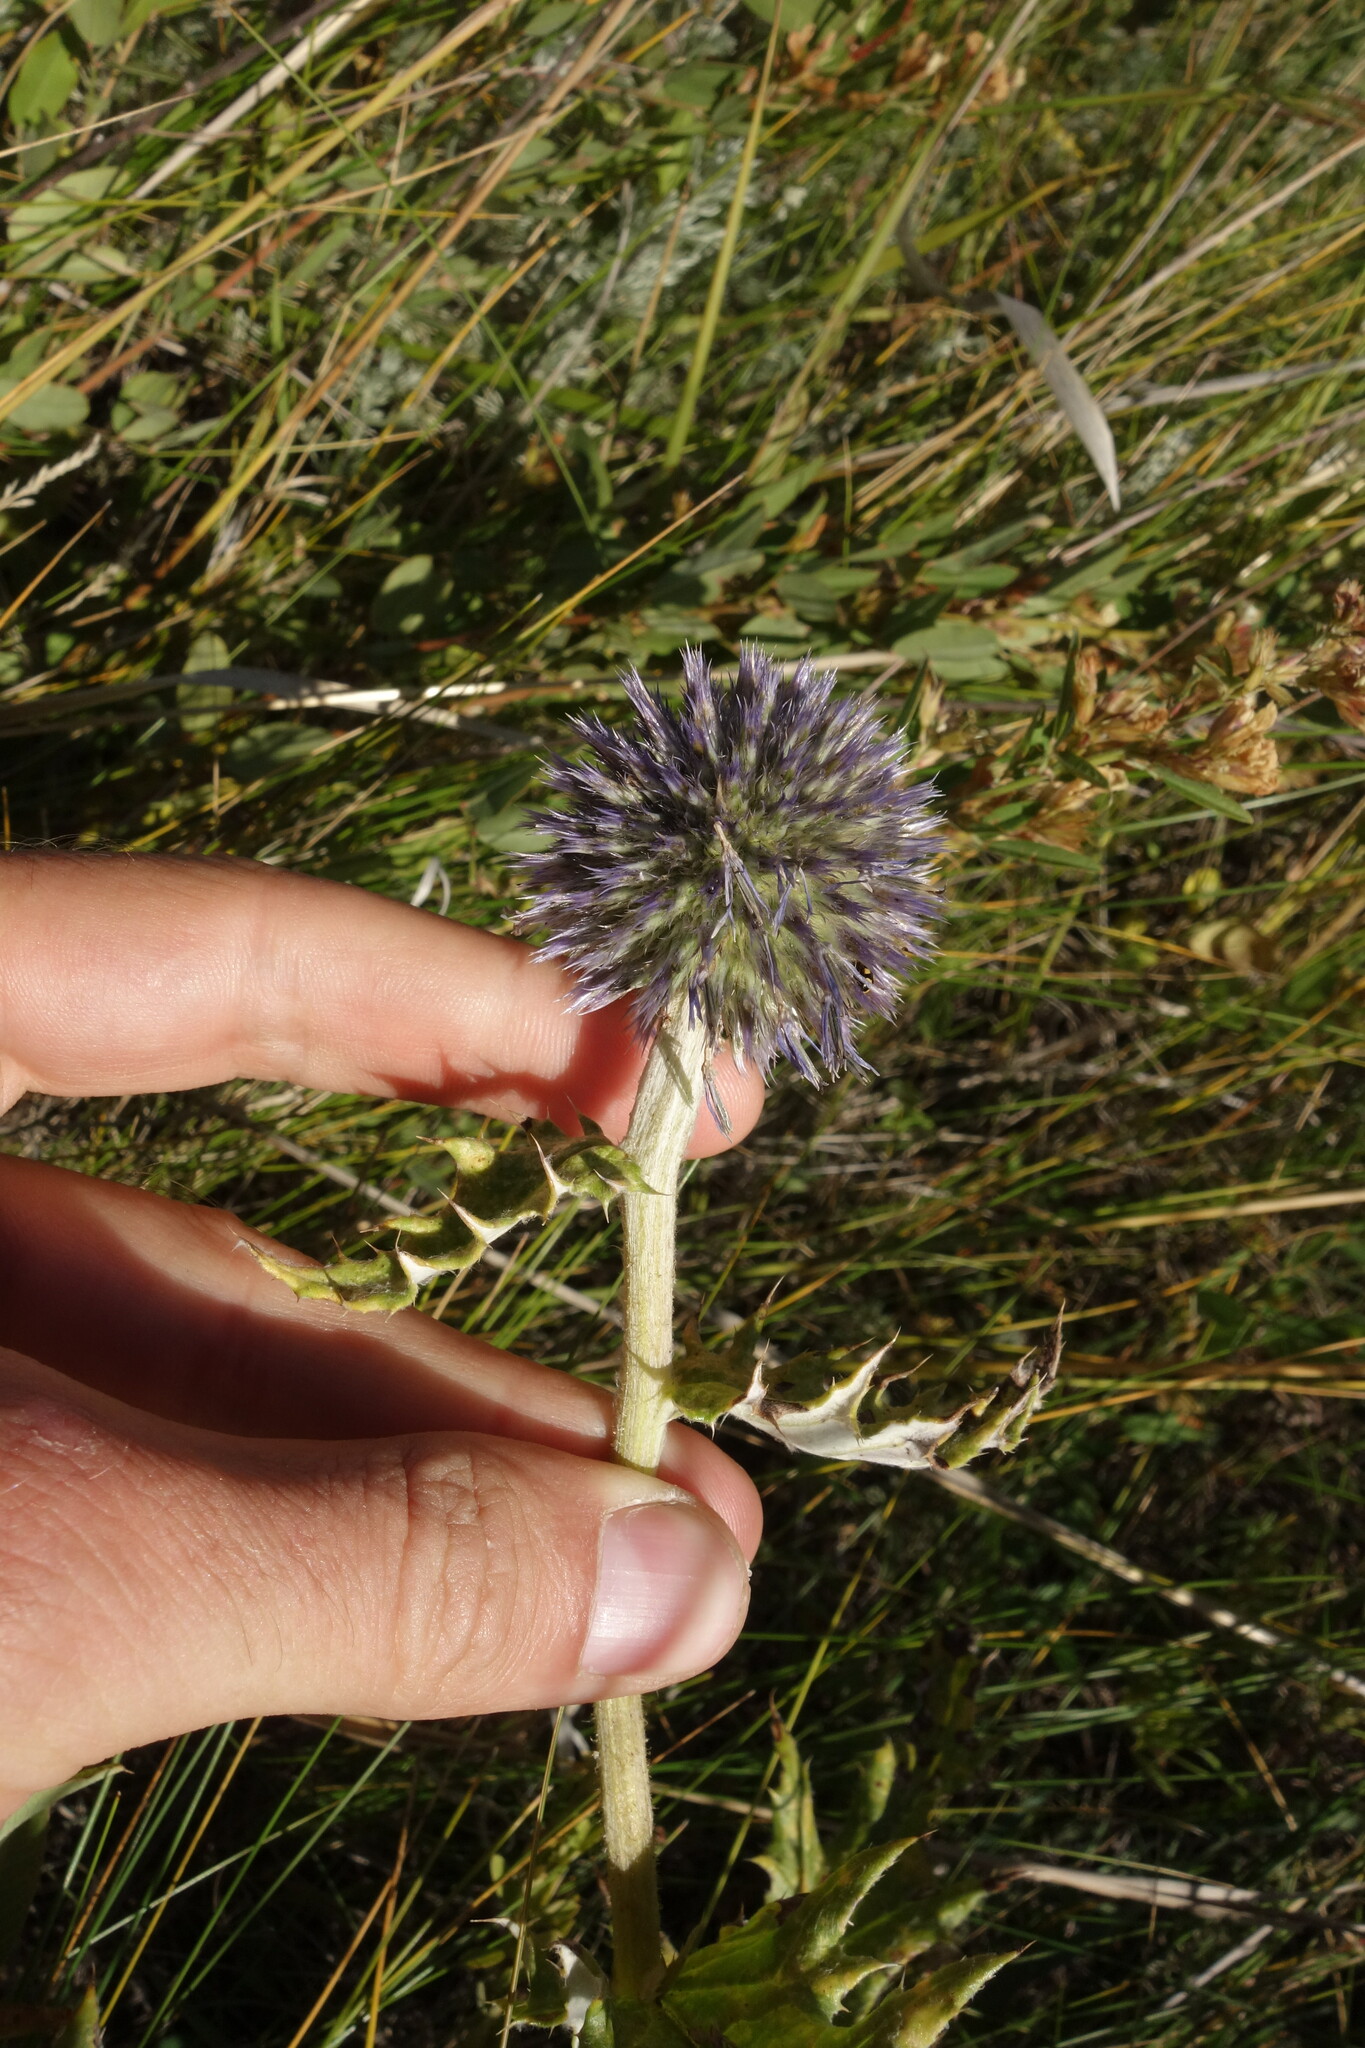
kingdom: Plantae
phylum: Tracheophyta
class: Magnoliopsida
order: Asterales
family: Asteraceae
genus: Echinops
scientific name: Echinops davuricus
